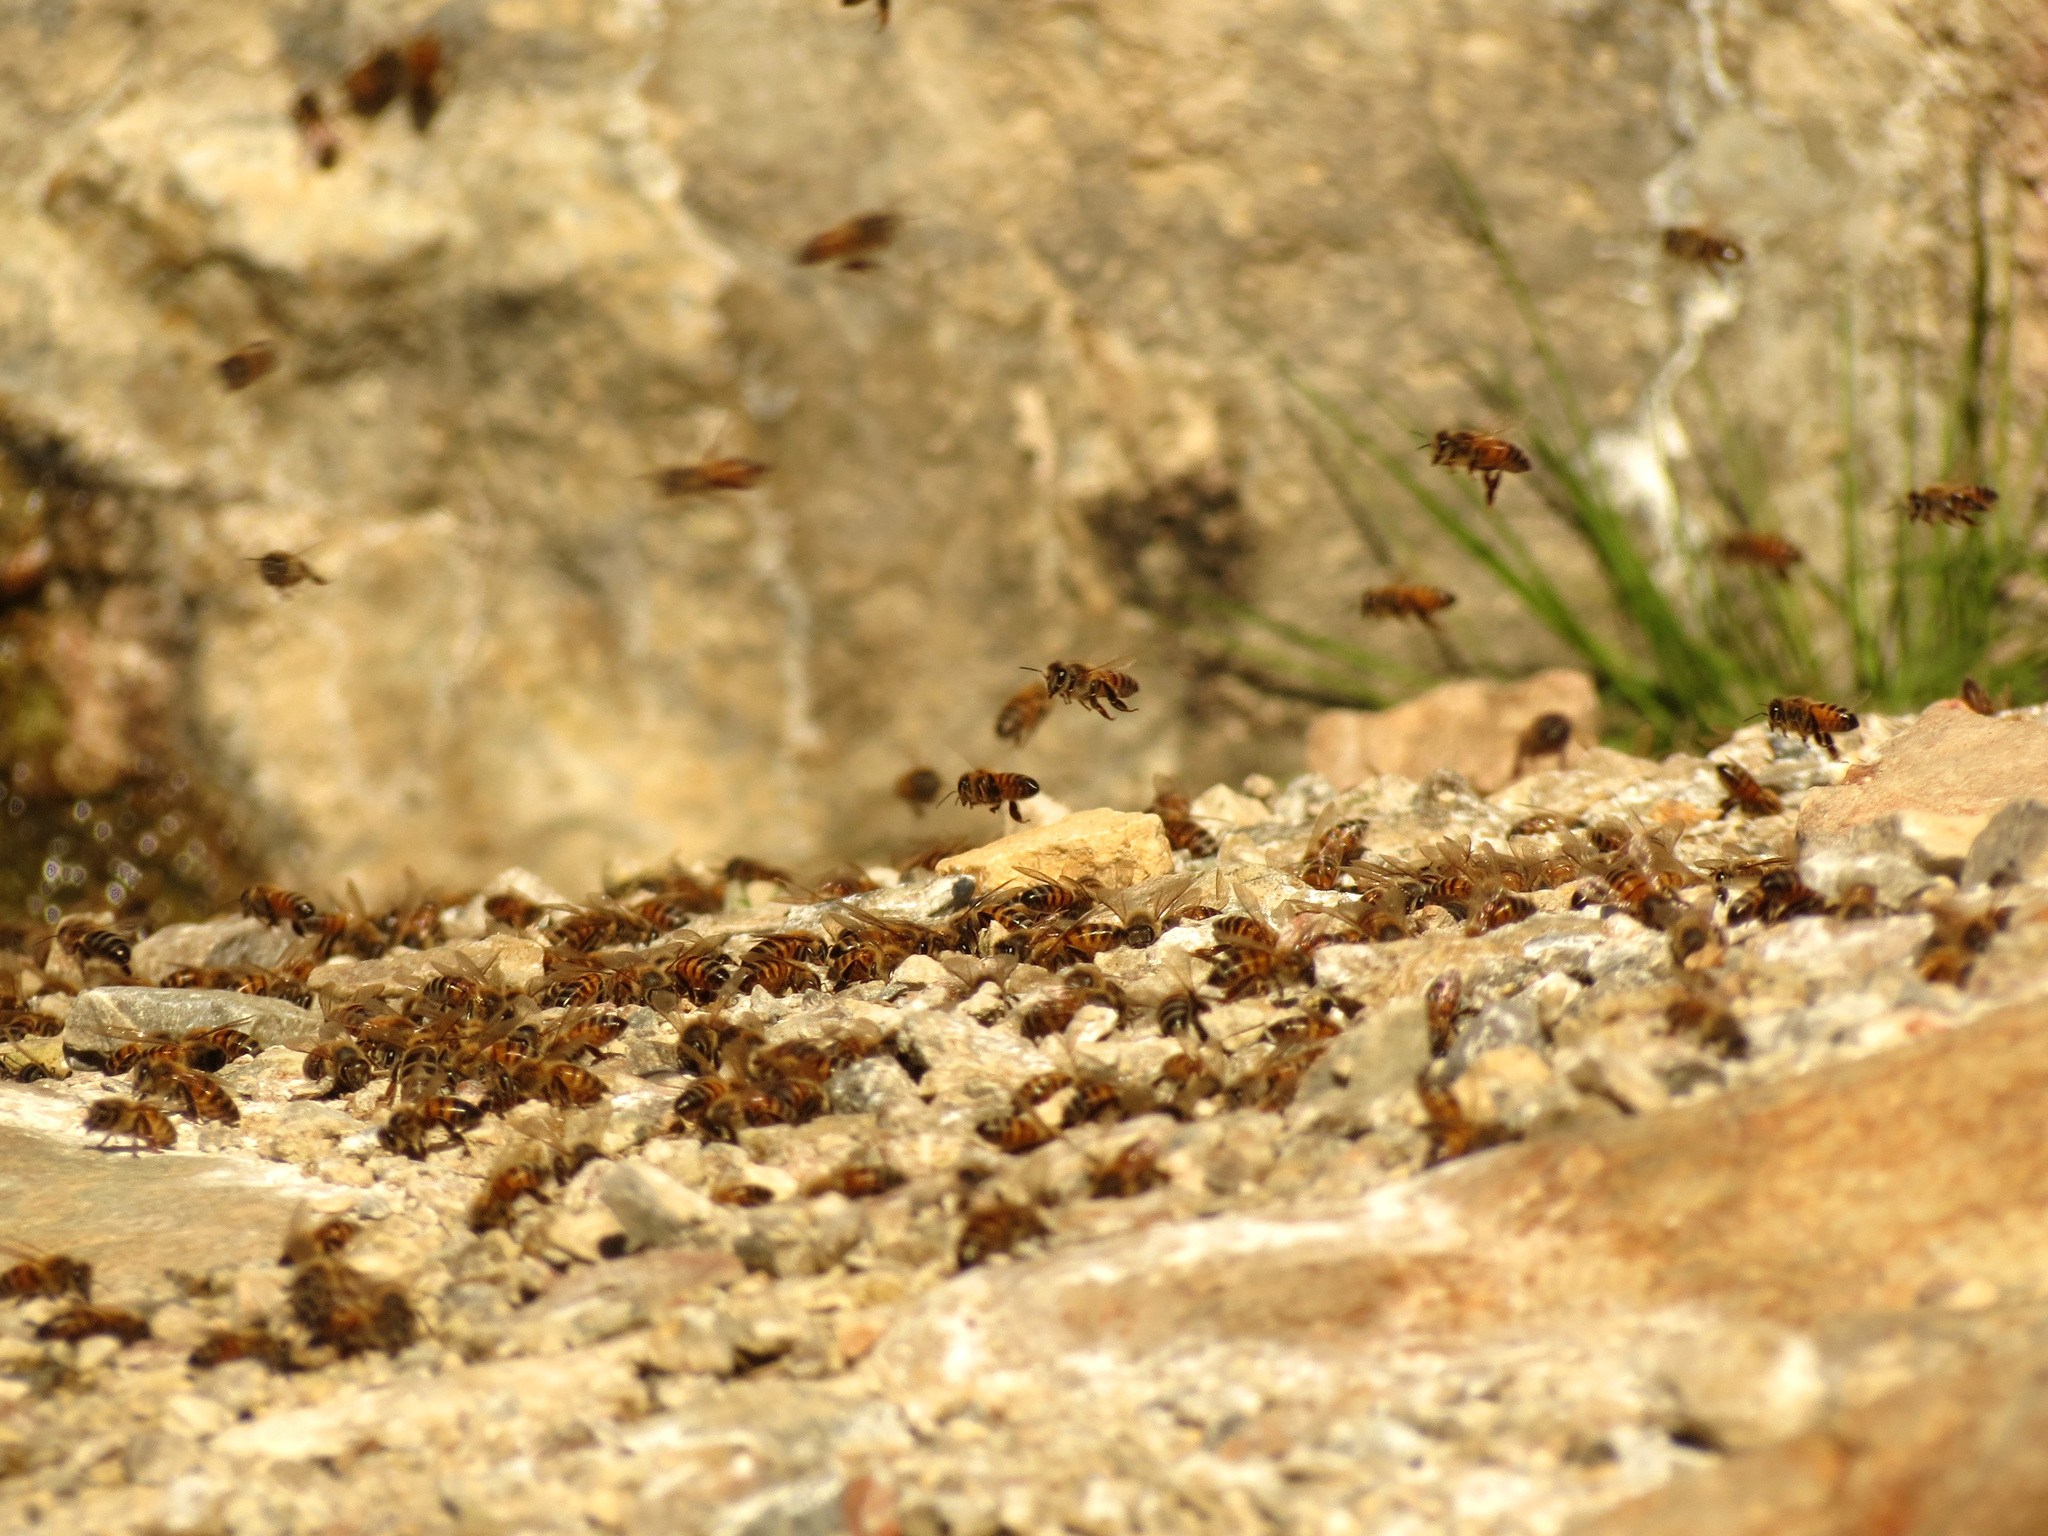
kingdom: Animalia
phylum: Arthropoda
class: Insecta
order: Hymenoptera
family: Apidae
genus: Apis
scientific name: Apis mellifera
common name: Honey bee
